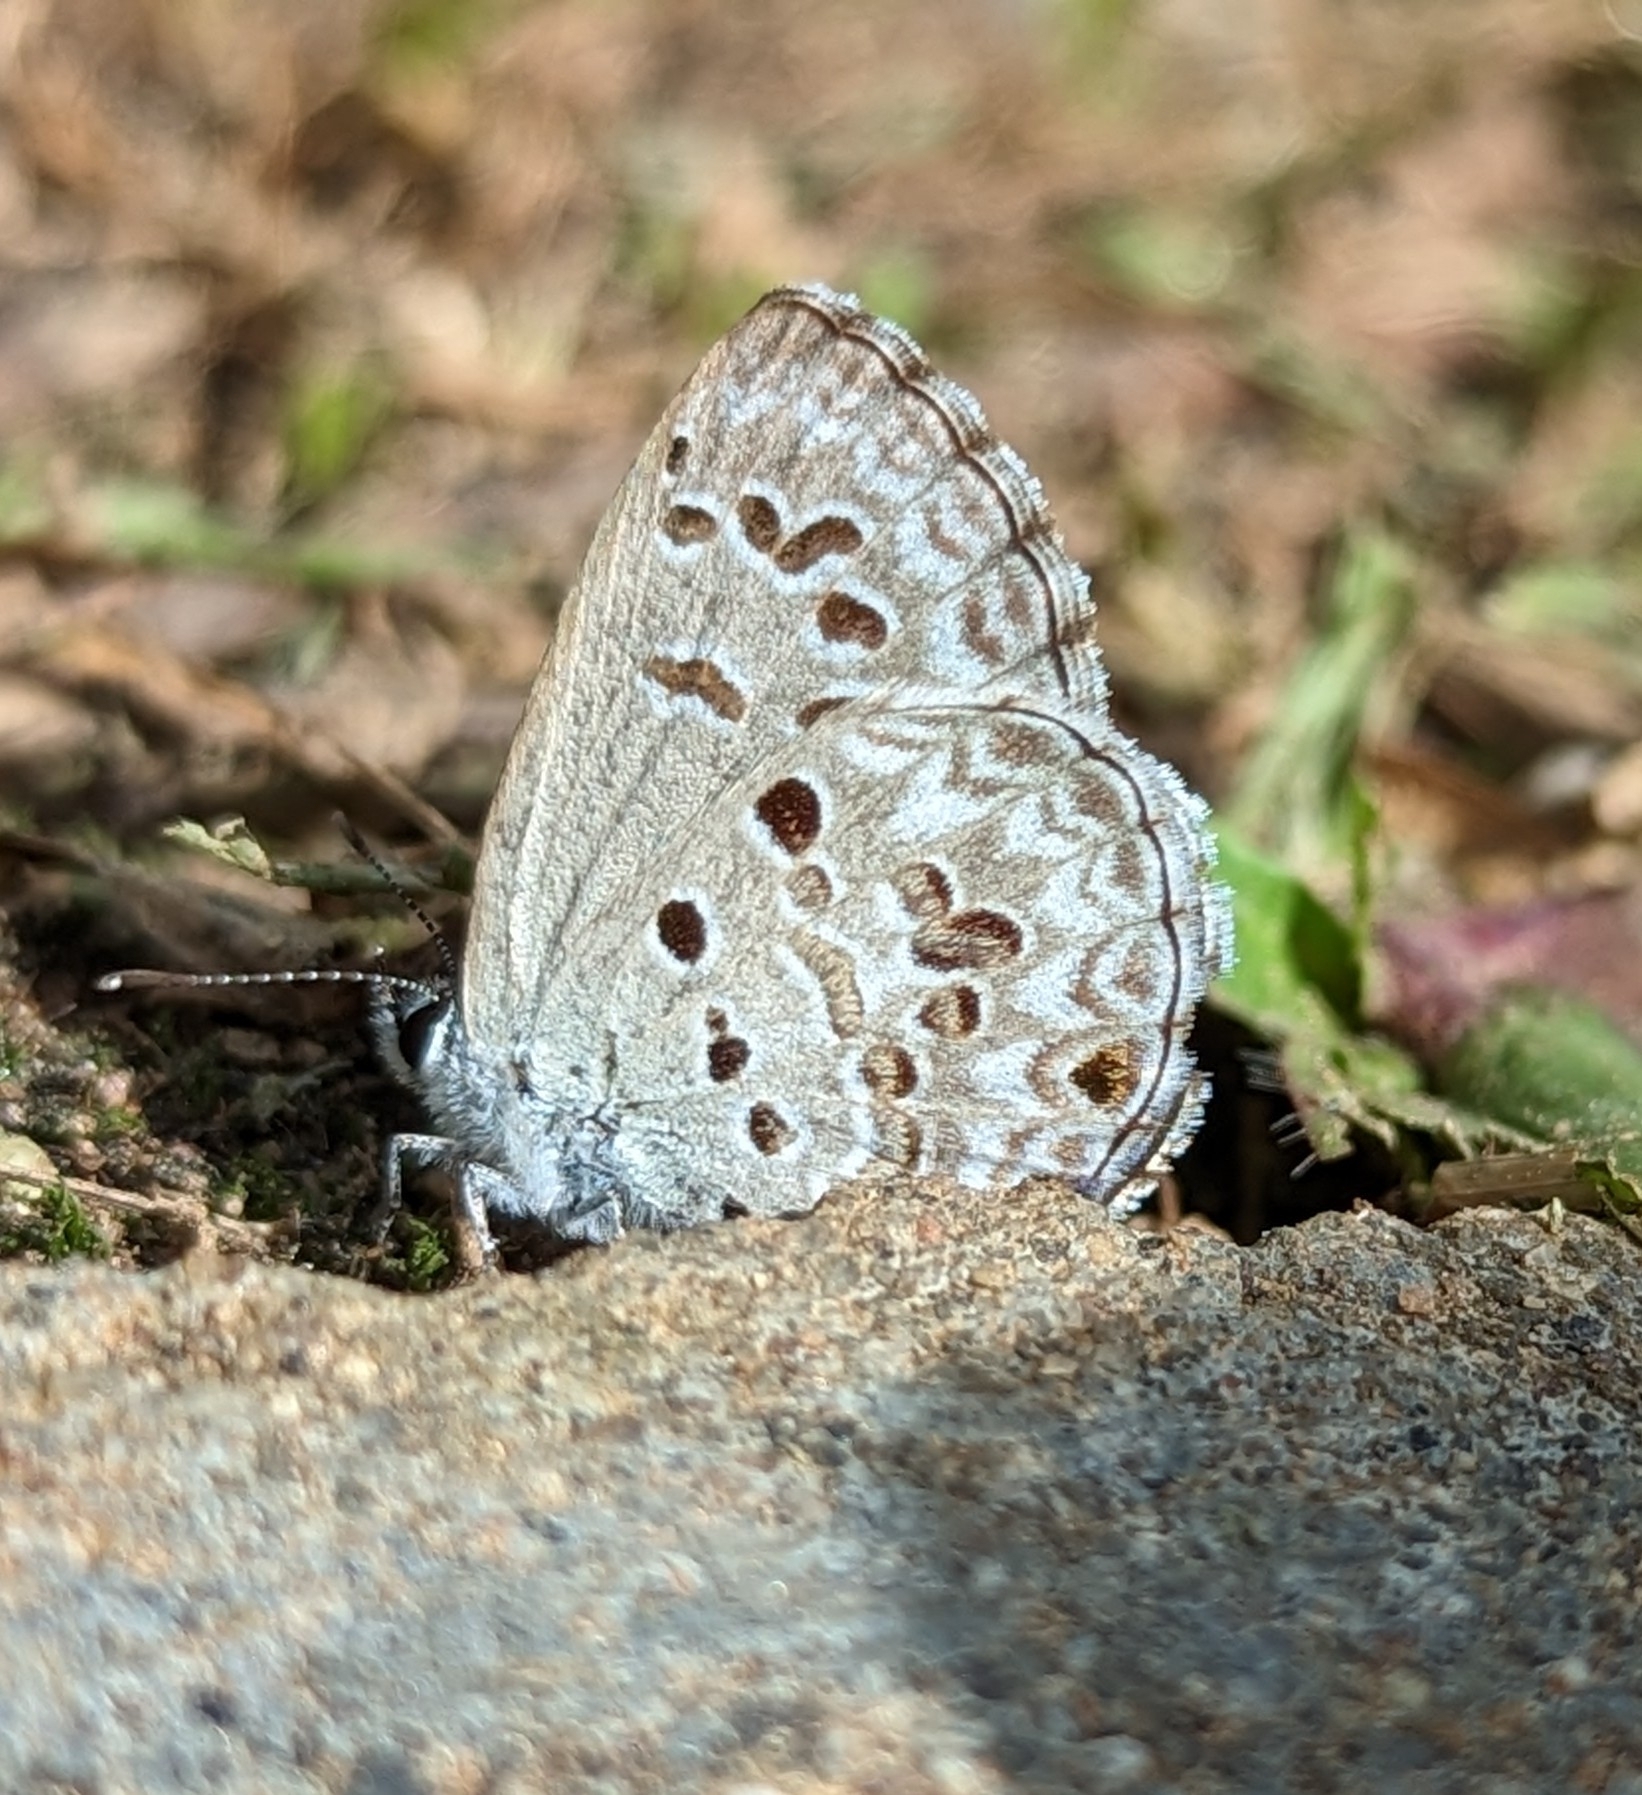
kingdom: Animalia
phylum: Arthropoda
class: Insecta
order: Lepidoptera
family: Lycaenidae
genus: Chilades
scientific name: Chilades laius
